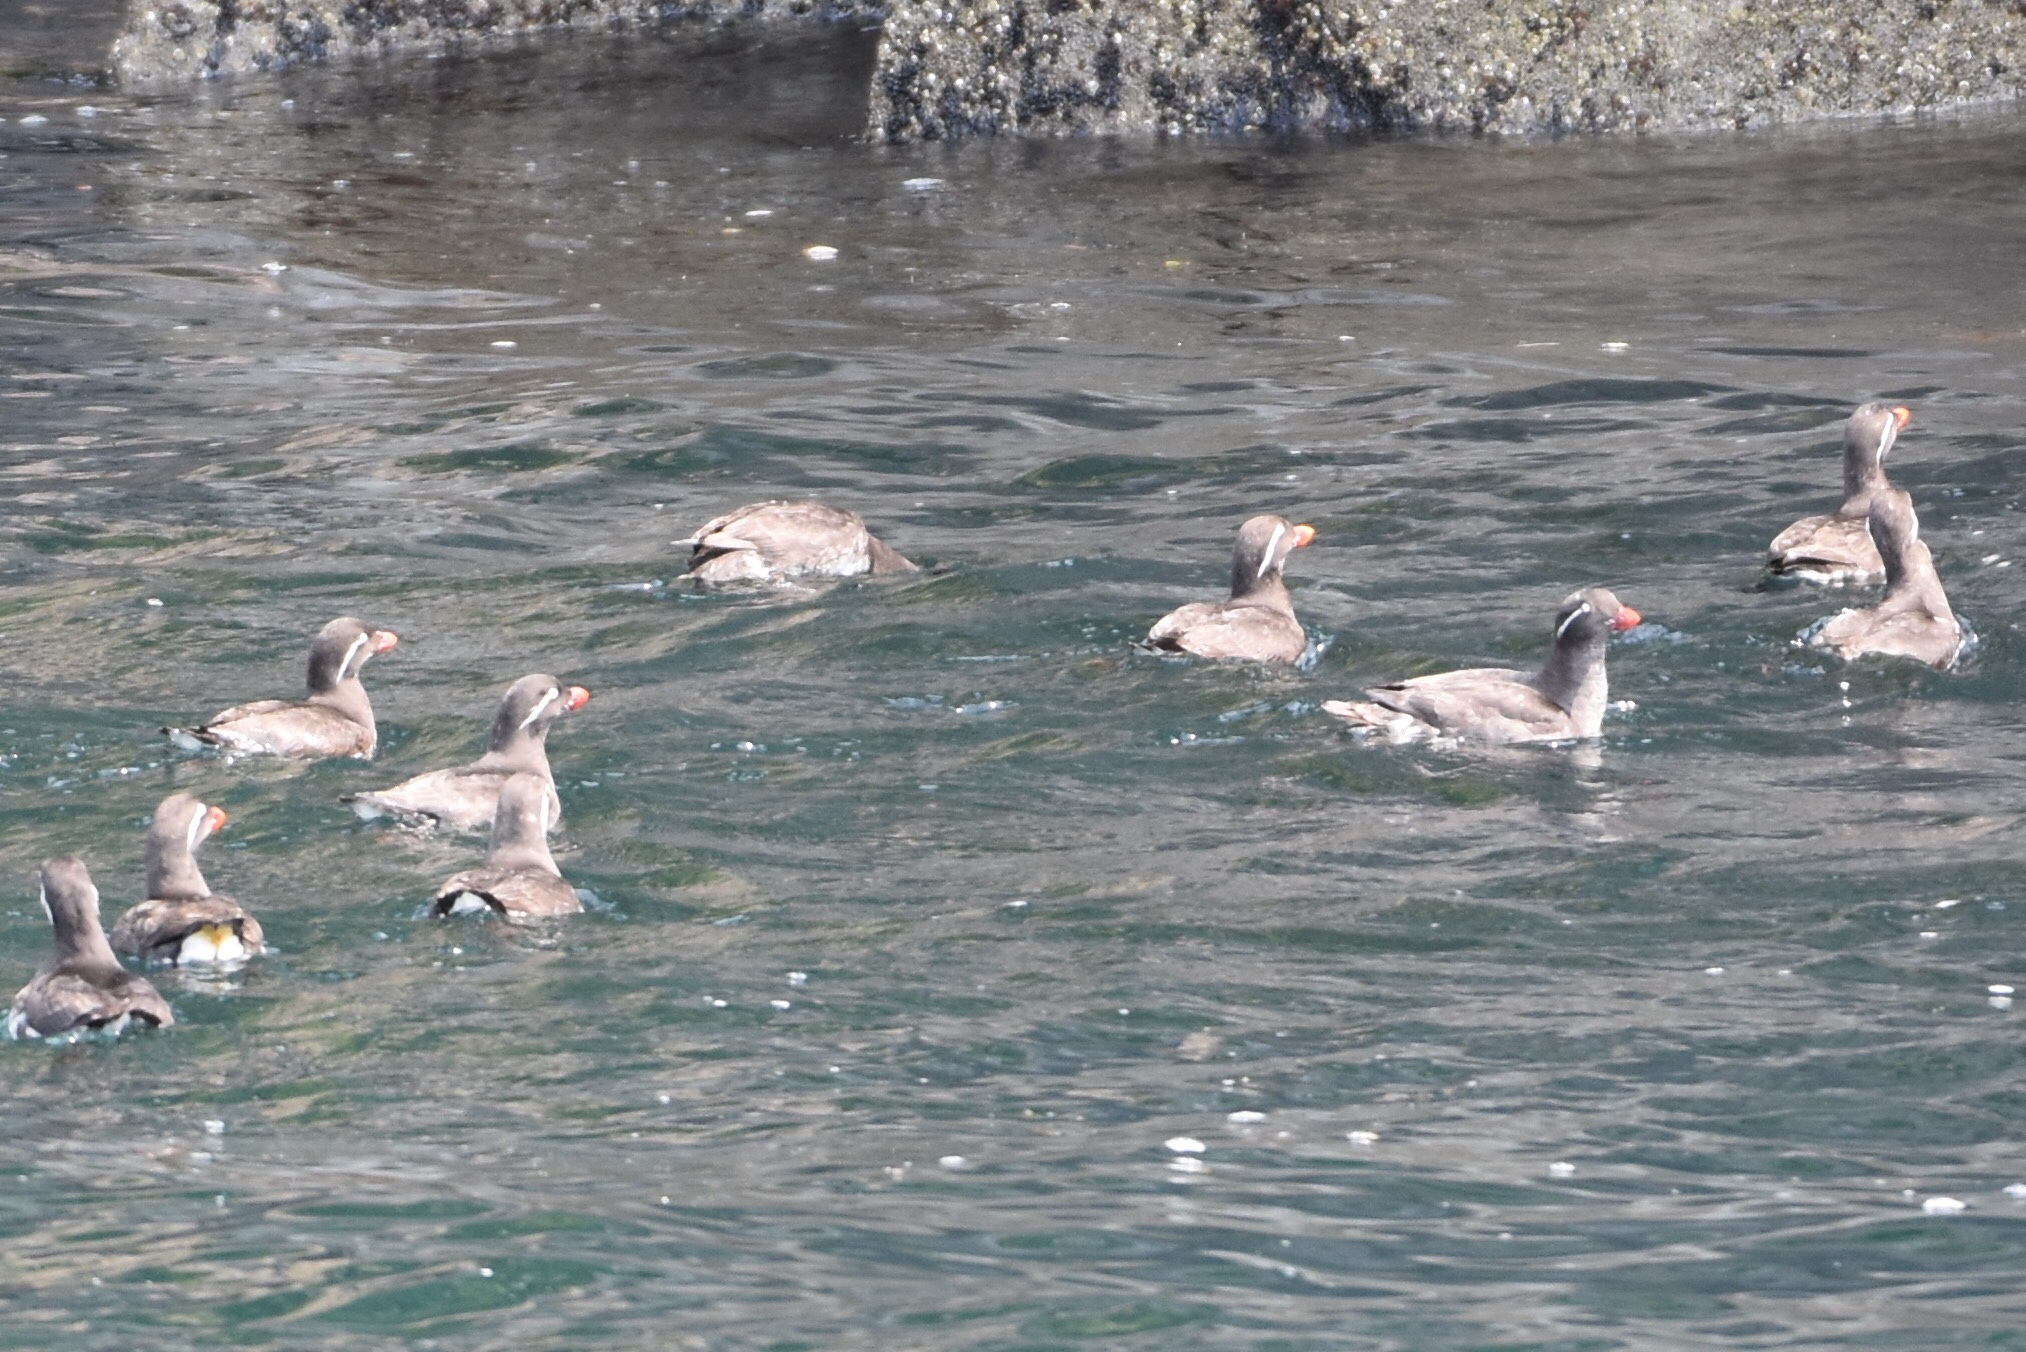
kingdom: Animalia
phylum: Chordata
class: Aves
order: Charadriiformes
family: Alcidae
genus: Aethia
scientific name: Aethia psittacula
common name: Parakeet auklet
